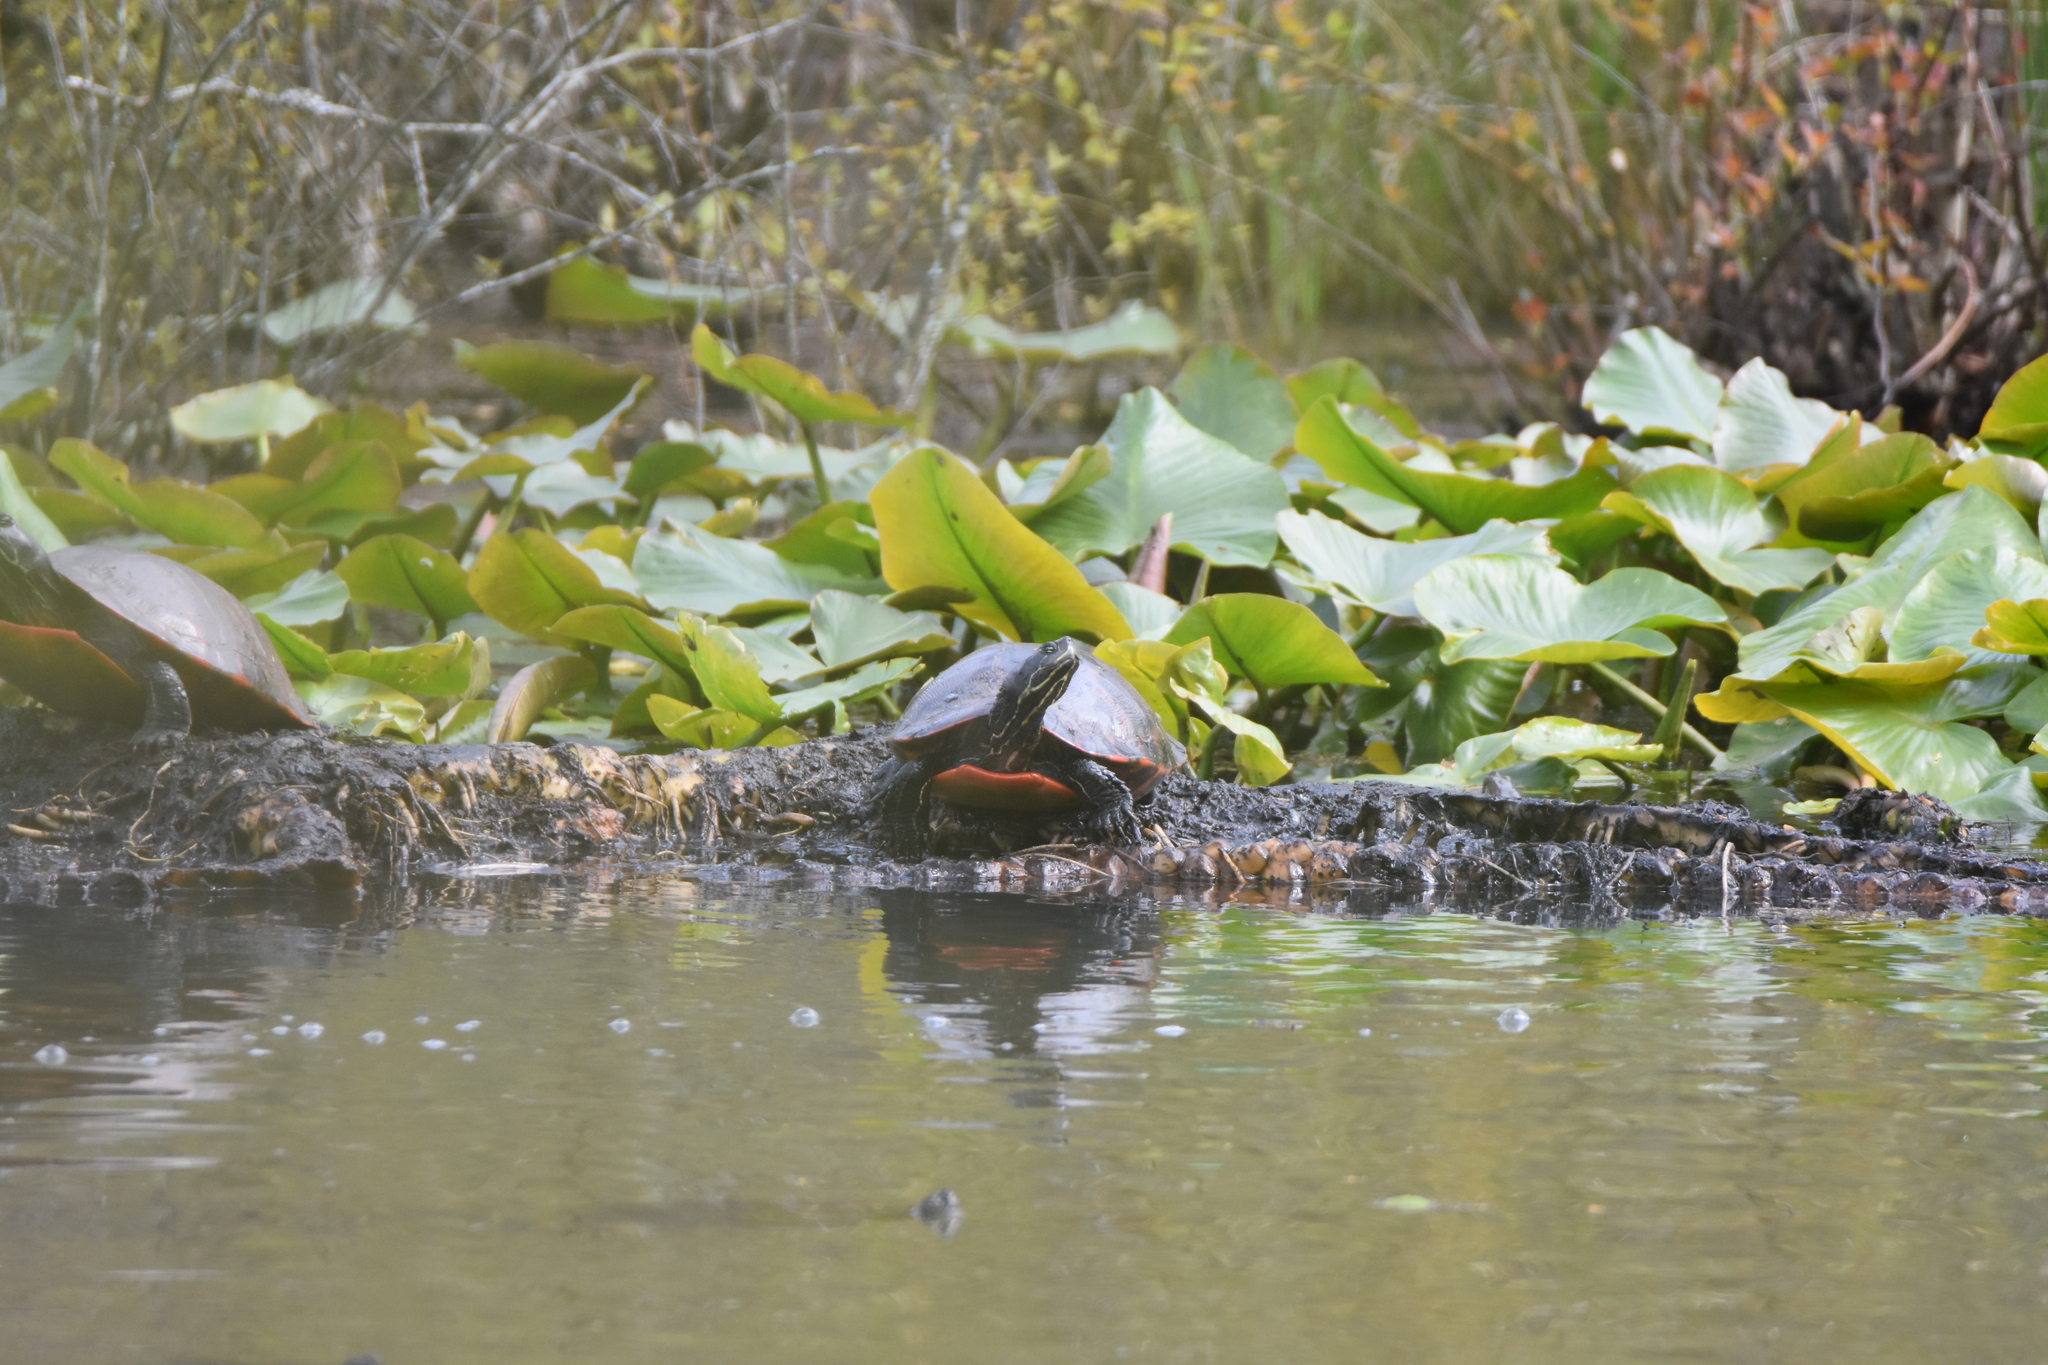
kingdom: Animalia
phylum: Chordata
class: Testudines
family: Emydidae
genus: Pseudemys
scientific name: Pseudemys rubriventris
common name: American red-bellied turtle
